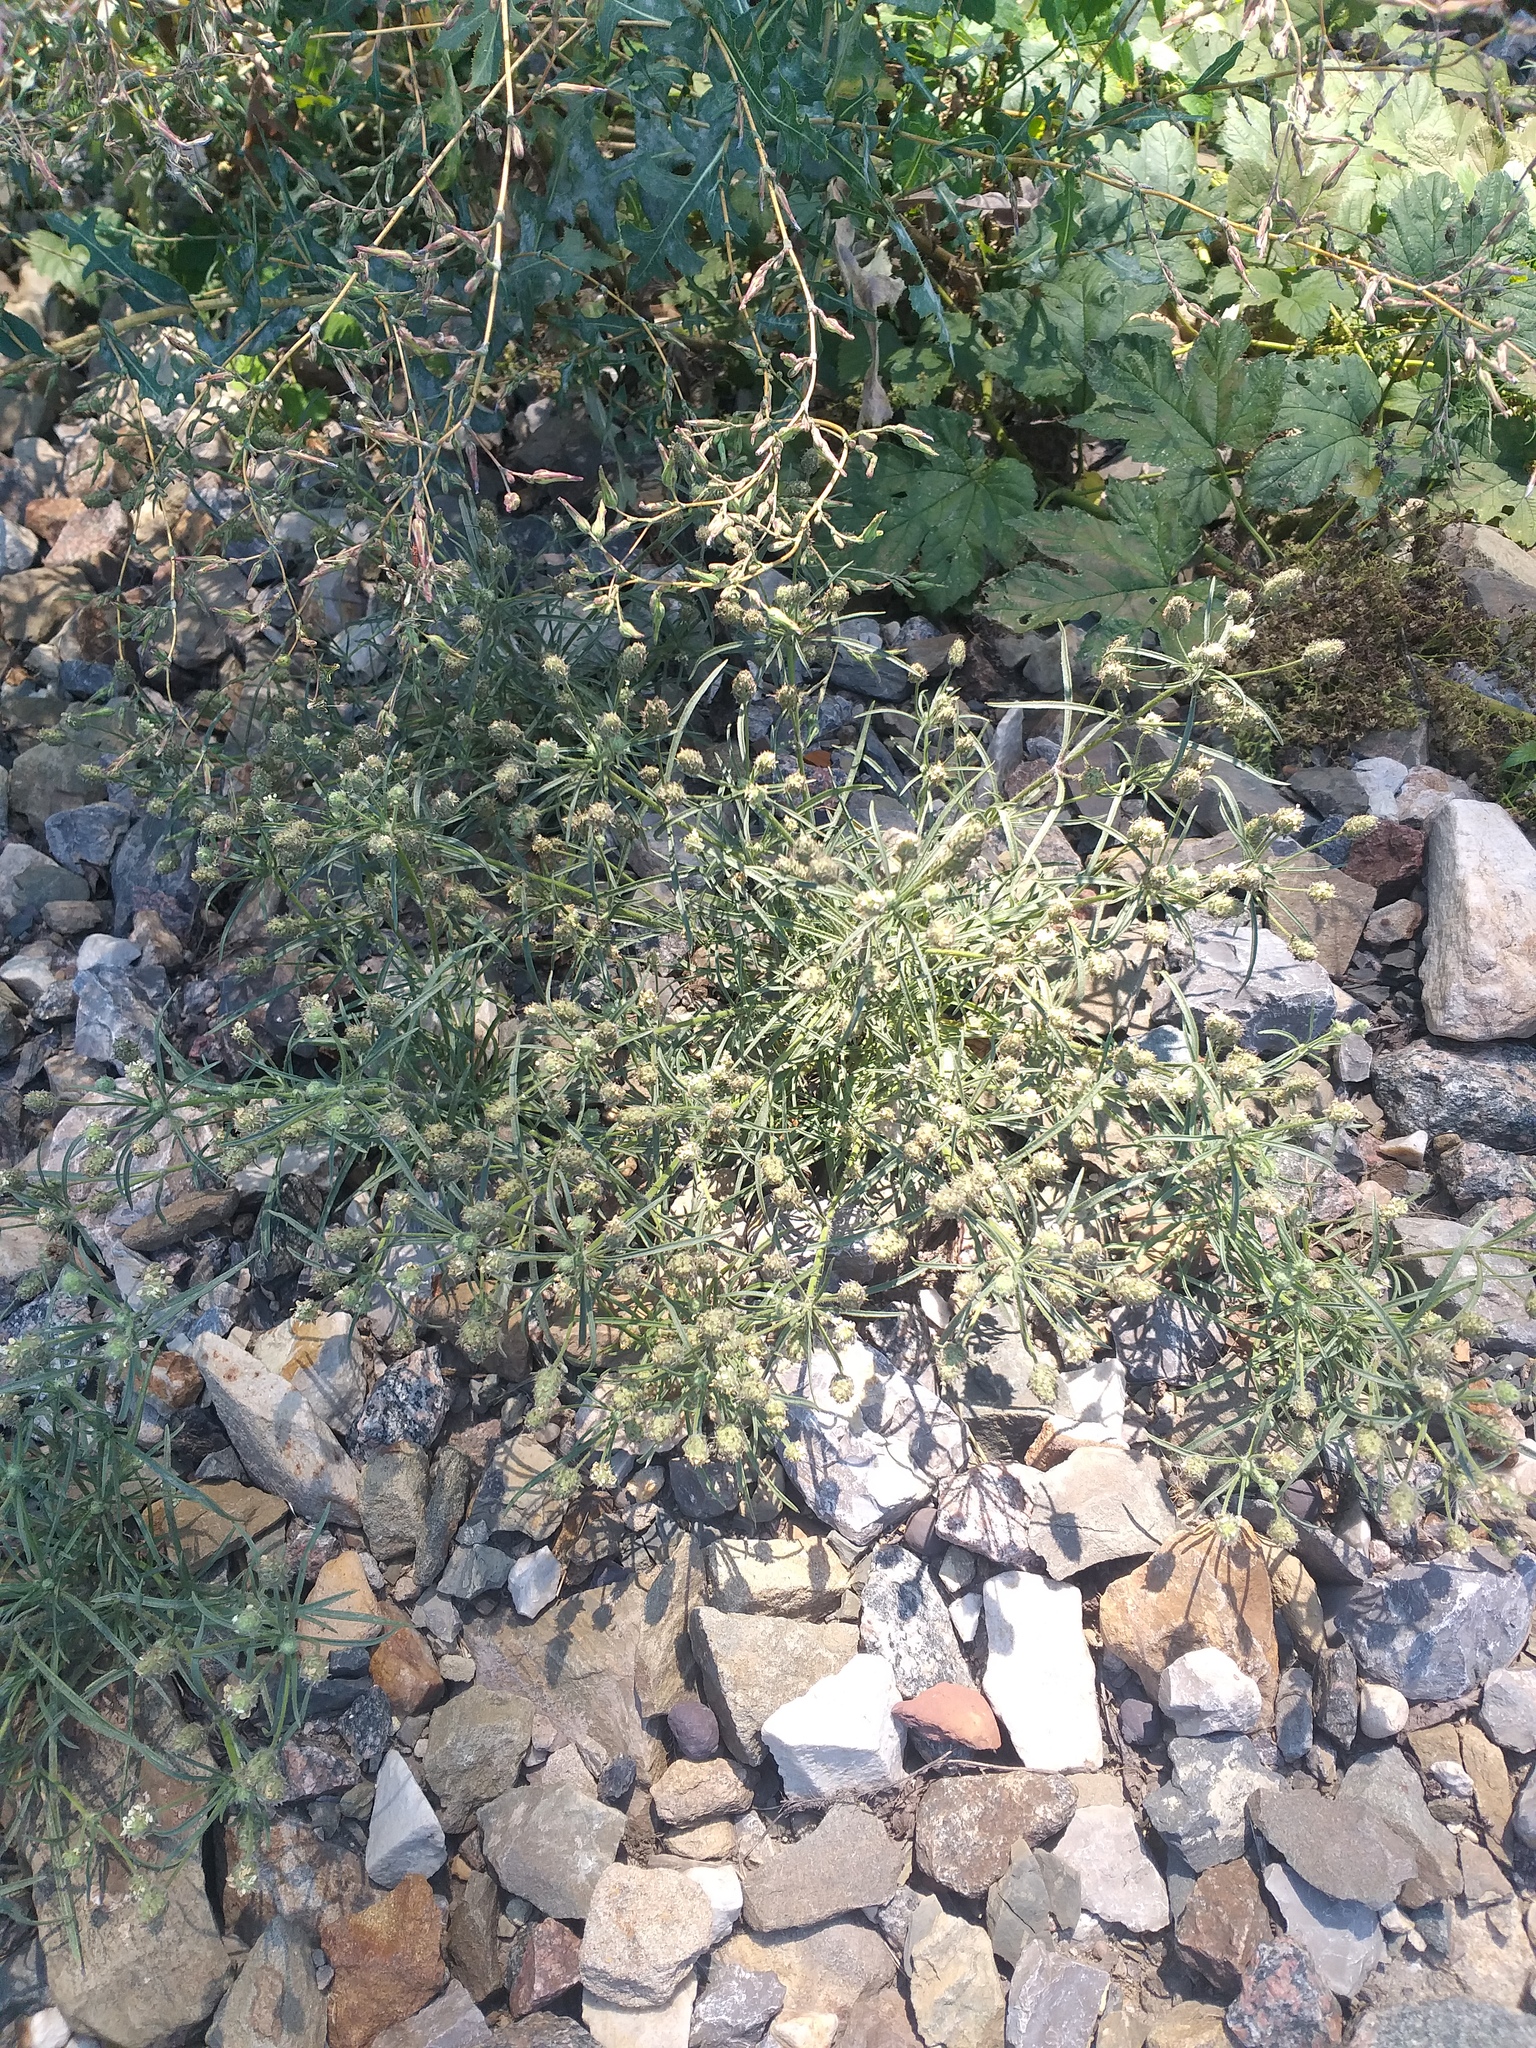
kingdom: Plantae
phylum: Tracheophyta
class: Magnoliopsida
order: Lamiales
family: Plantaginaceae
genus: Plantago
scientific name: Plantago arenaria
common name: Branched plantain
